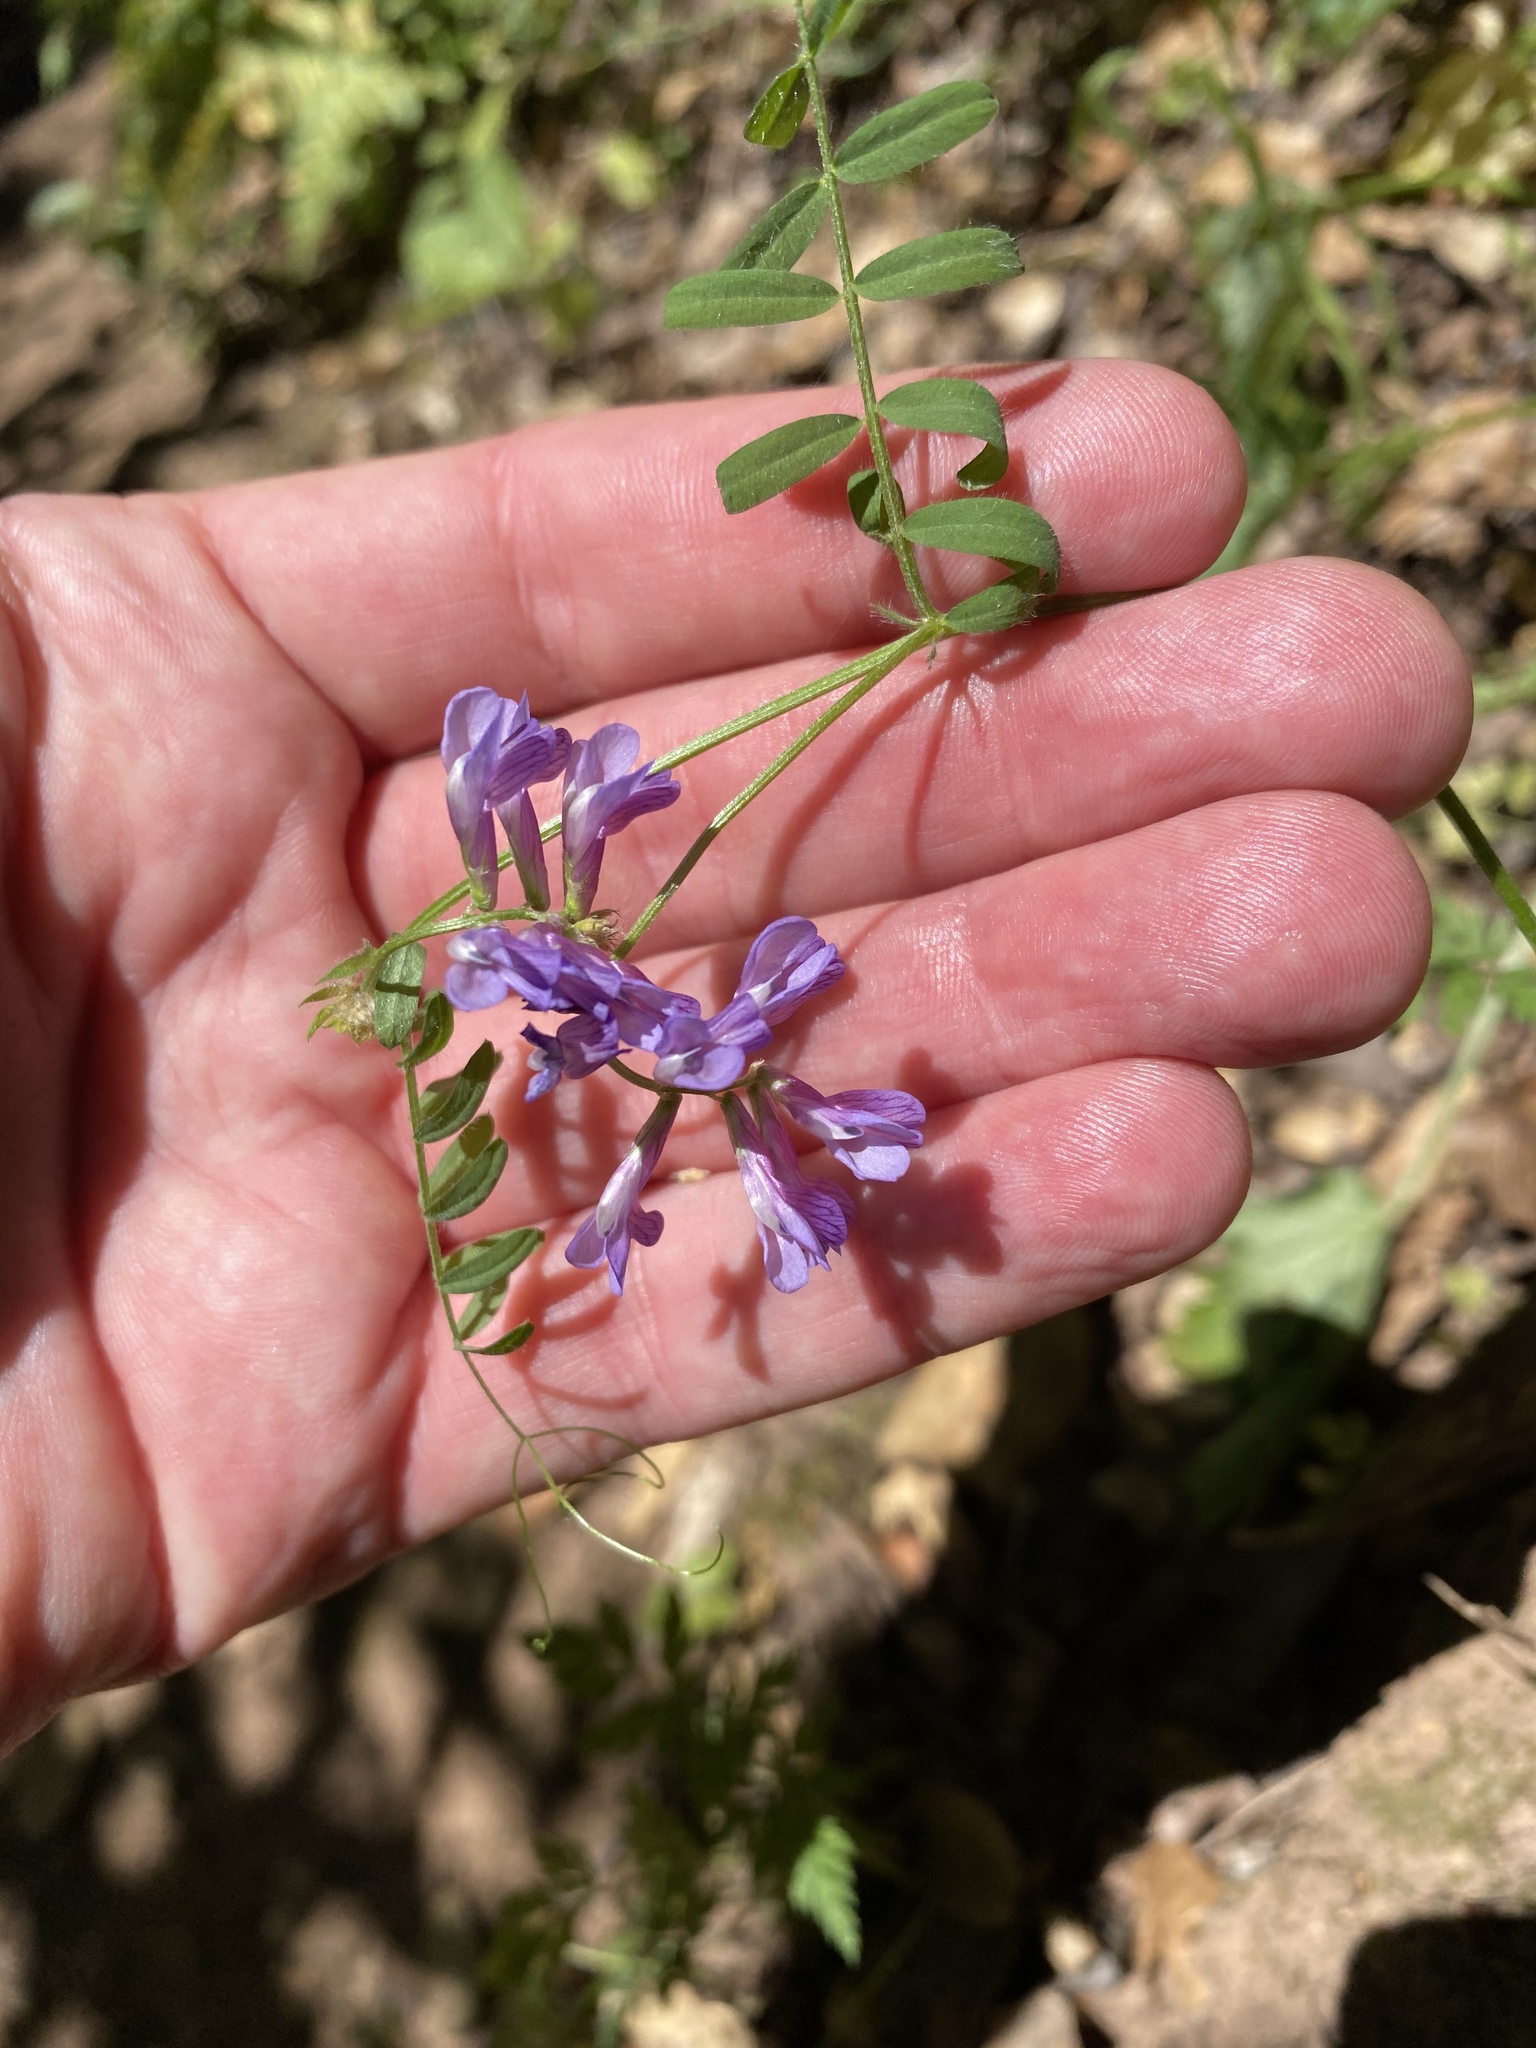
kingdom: Plantae
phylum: Tracheophyta
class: Magnoliopsida
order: Fabales
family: Fabaceae
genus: Vicia
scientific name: Vicia villosa
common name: Fodder vetch
